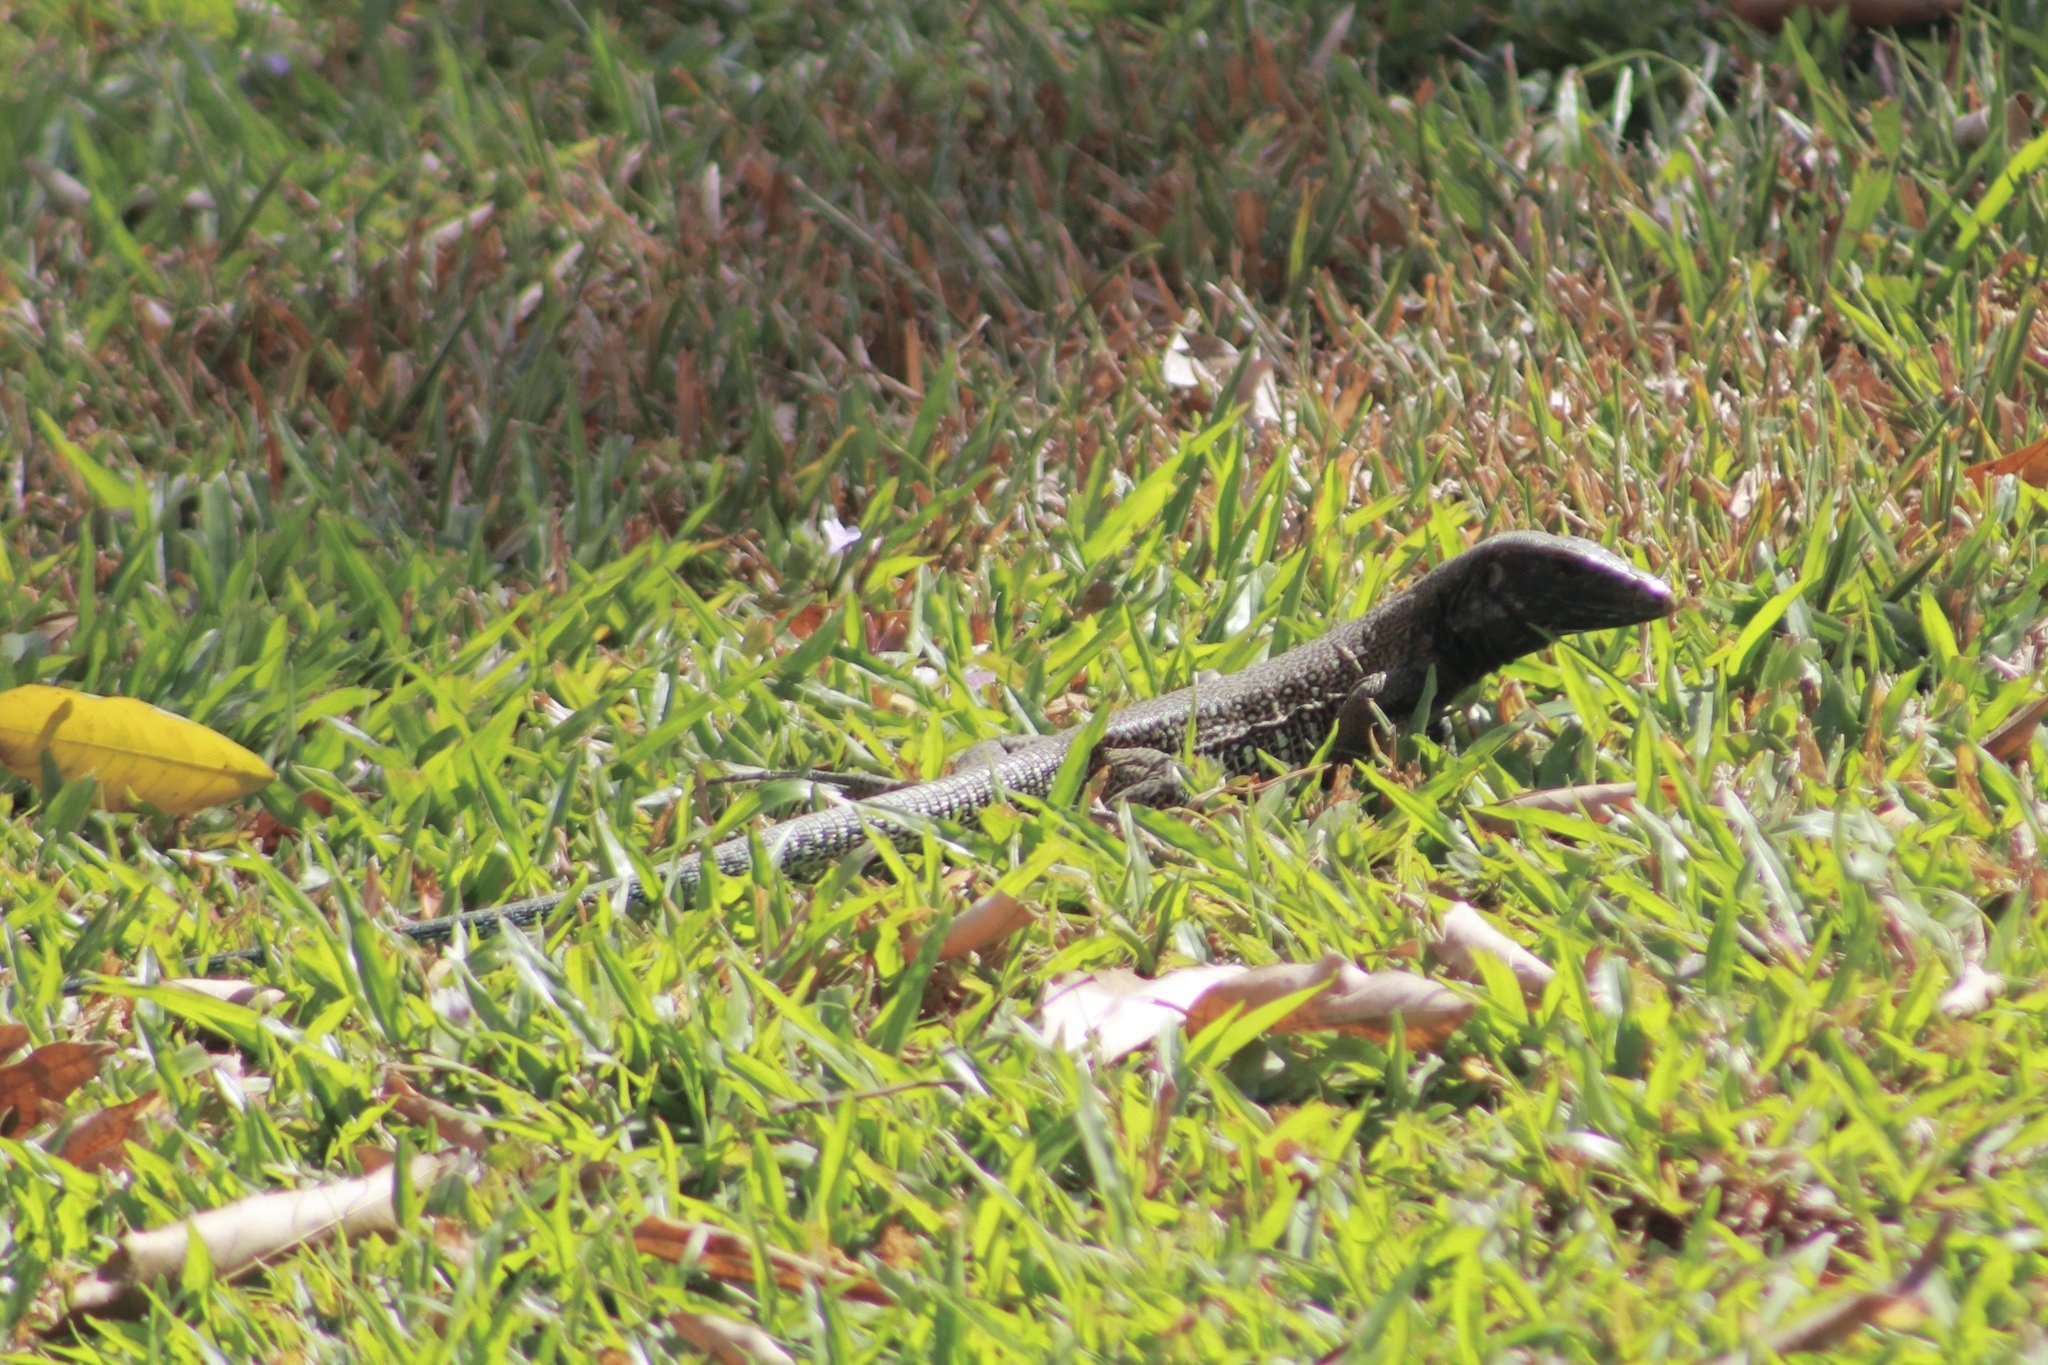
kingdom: Animalia
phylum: Chordata
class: Squamata
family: Teiidae
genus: Ameiva
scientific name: Ameiva atrigularis
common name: Venezuelan ameiva
